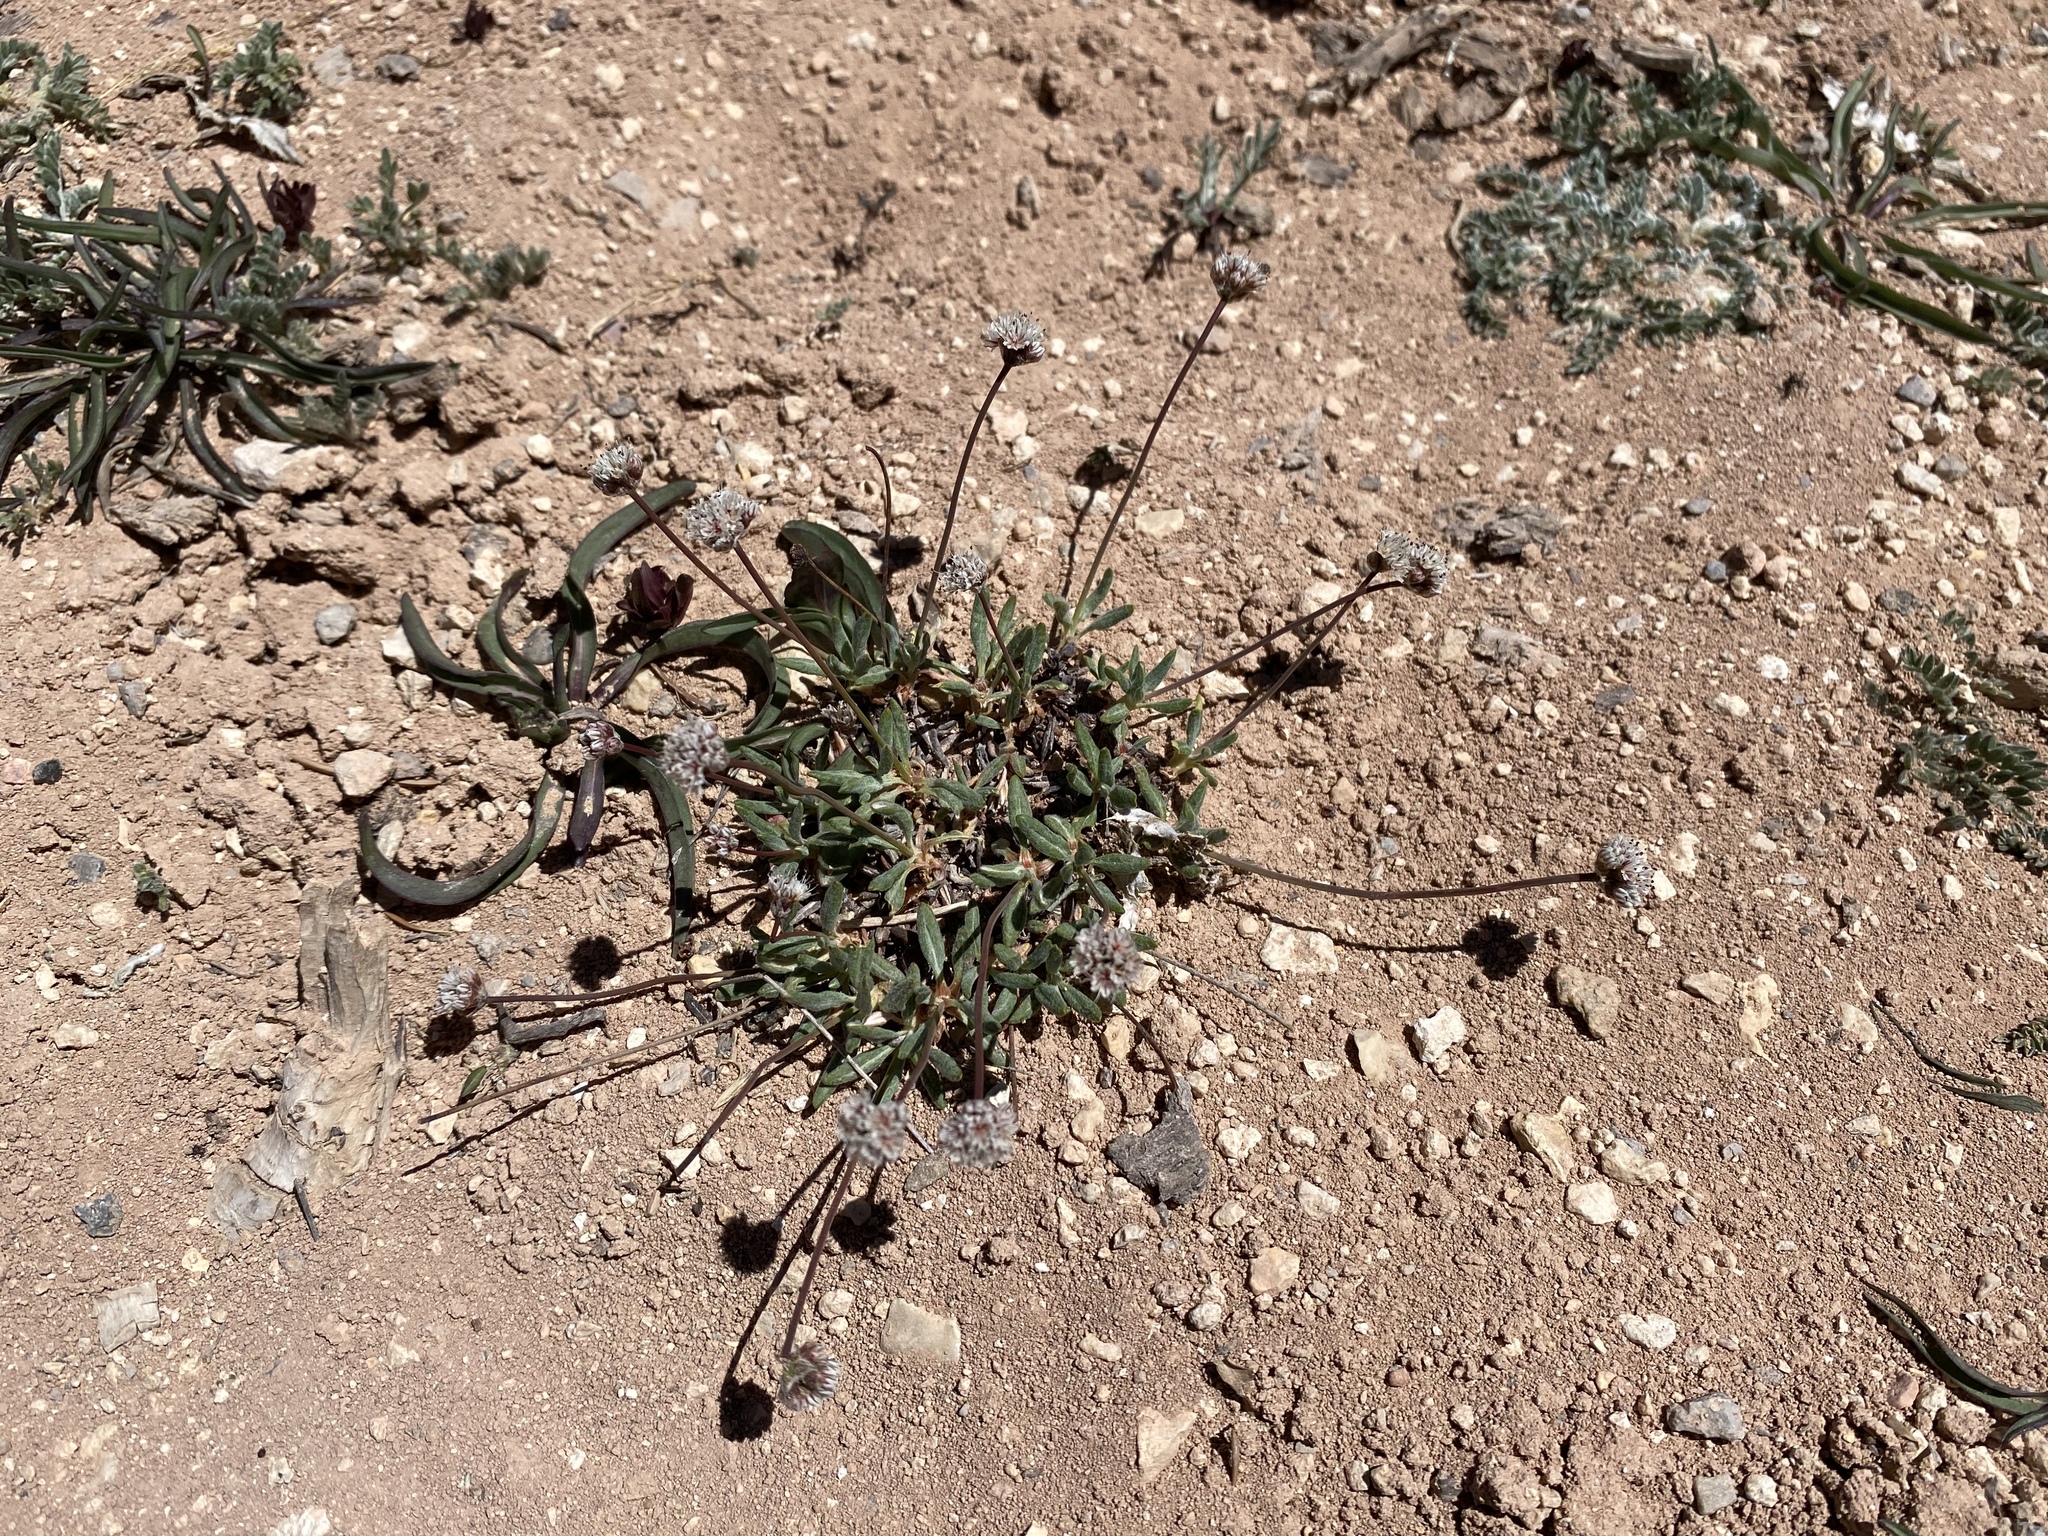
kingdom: Plantae
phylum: Tracheophyta
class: Magnoliopsida
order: Caryophyllales
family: Polygonaceae
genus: Eriogonum
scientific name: Eriogonum panguicense
